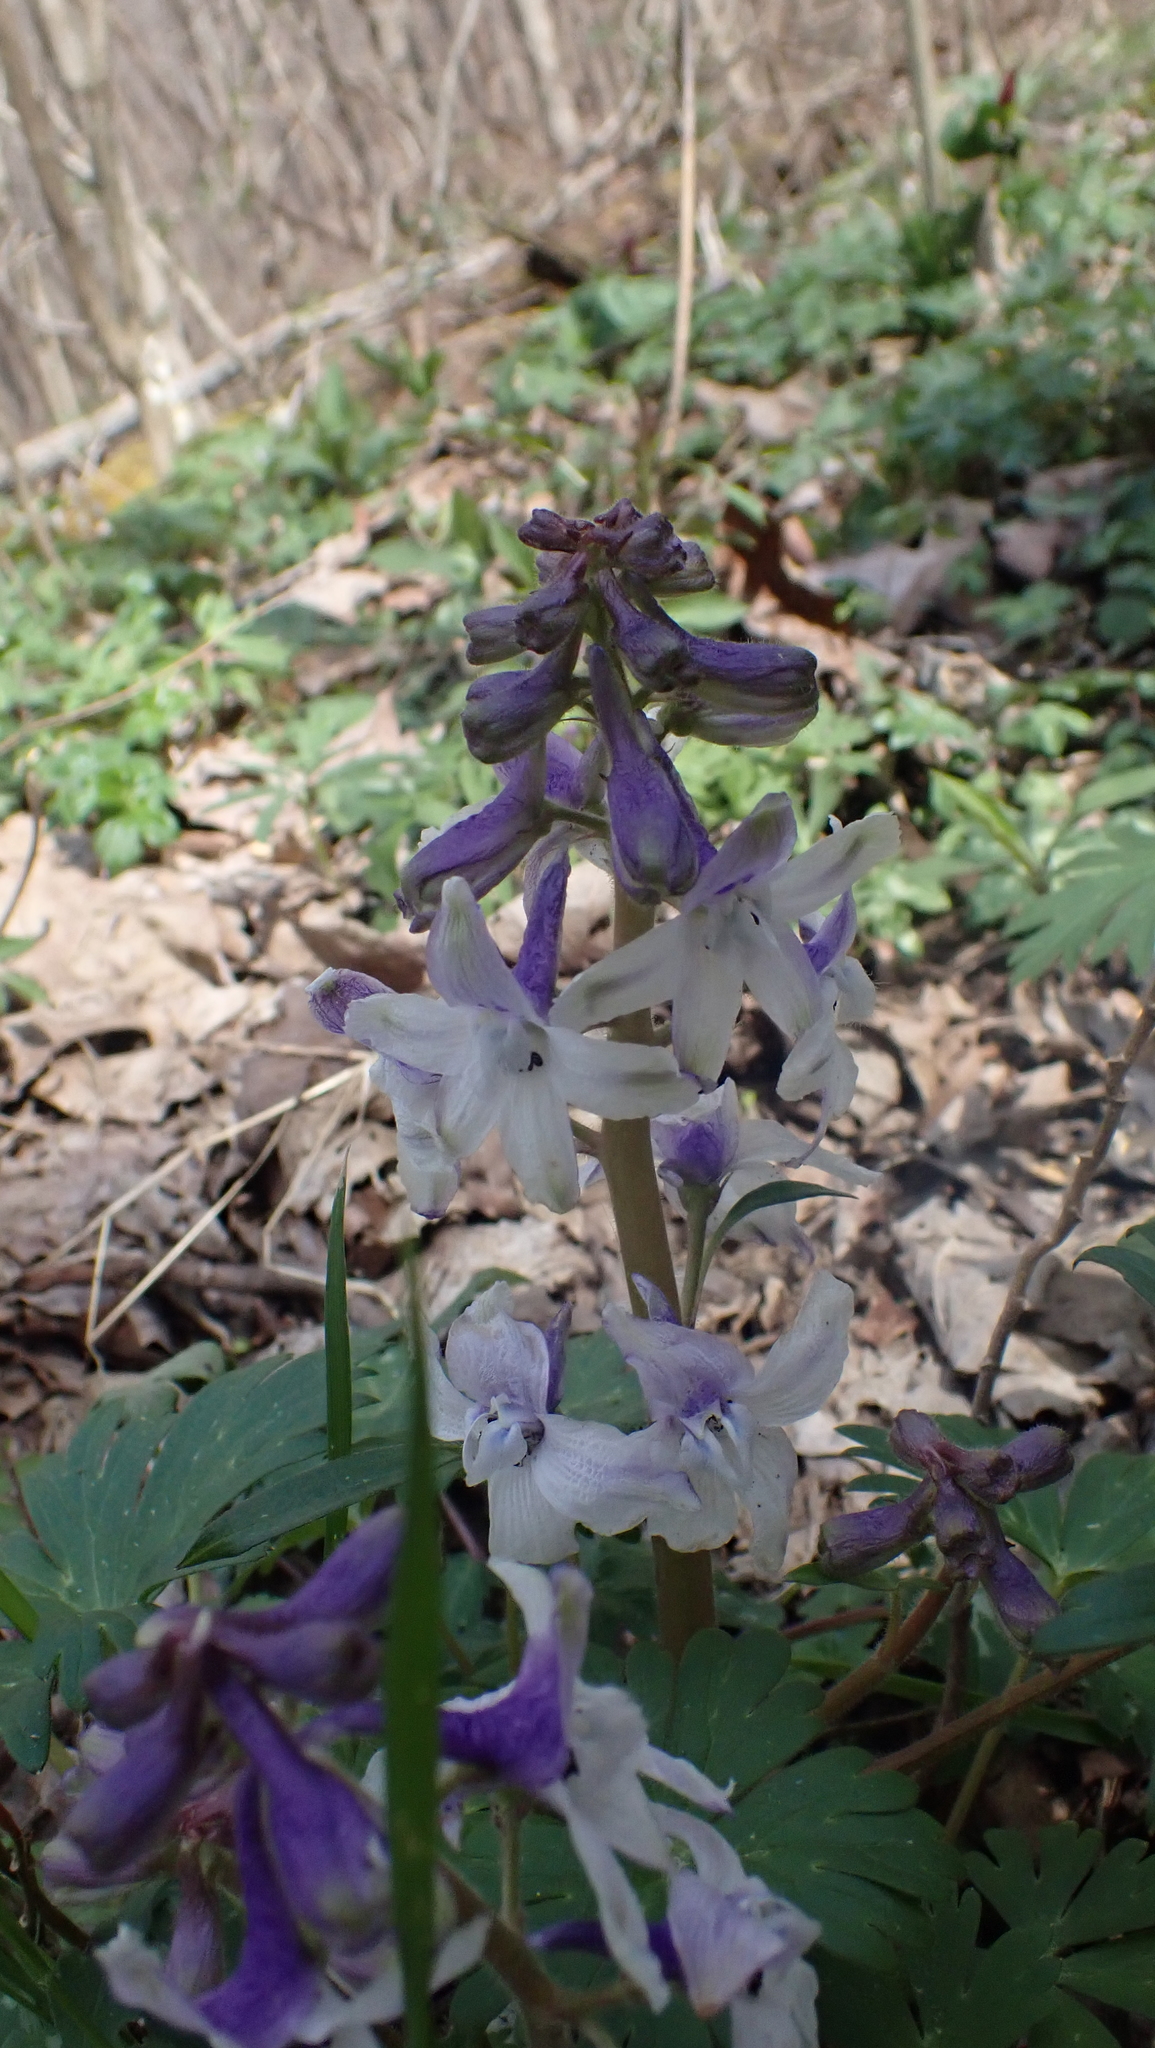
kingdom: Plantae
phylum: Tracheophyta
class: Magnoliopsida
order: Ranunculales
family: Ranunculaceae
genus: Delphinium
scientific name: Delphinium tricorne
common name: Dwarf larkspur
